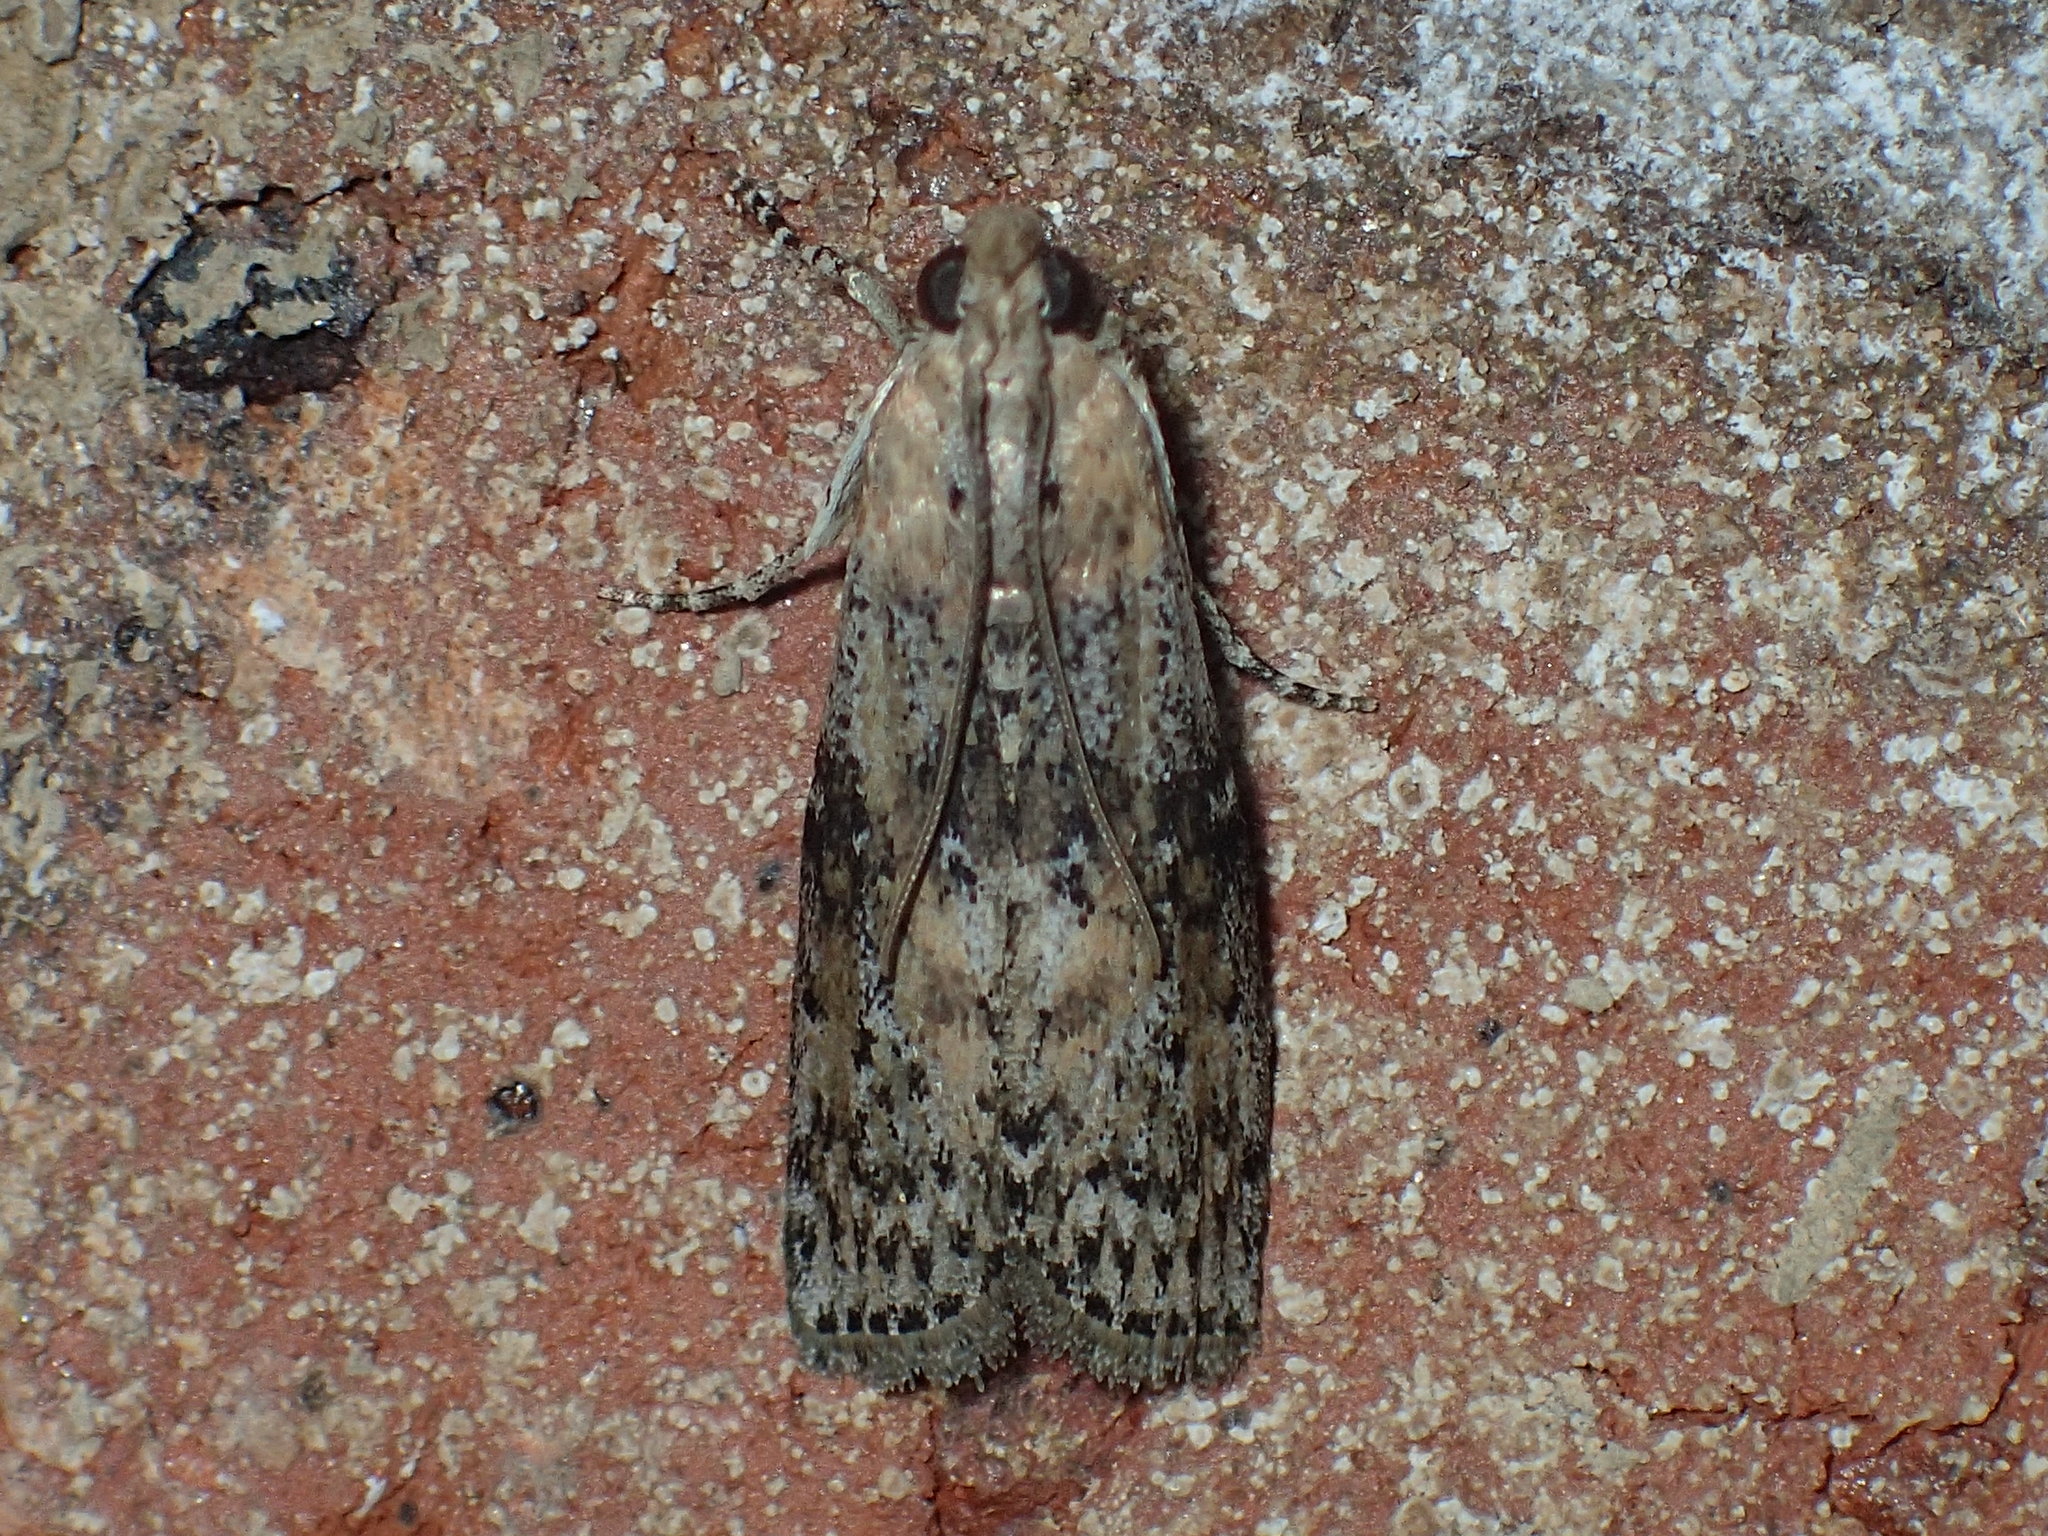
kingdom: Animalia
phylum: Arthropoda
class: Insecta
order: Lepidoptera
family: Pyralidae
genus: Sciota
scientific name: Sciota celtidella
